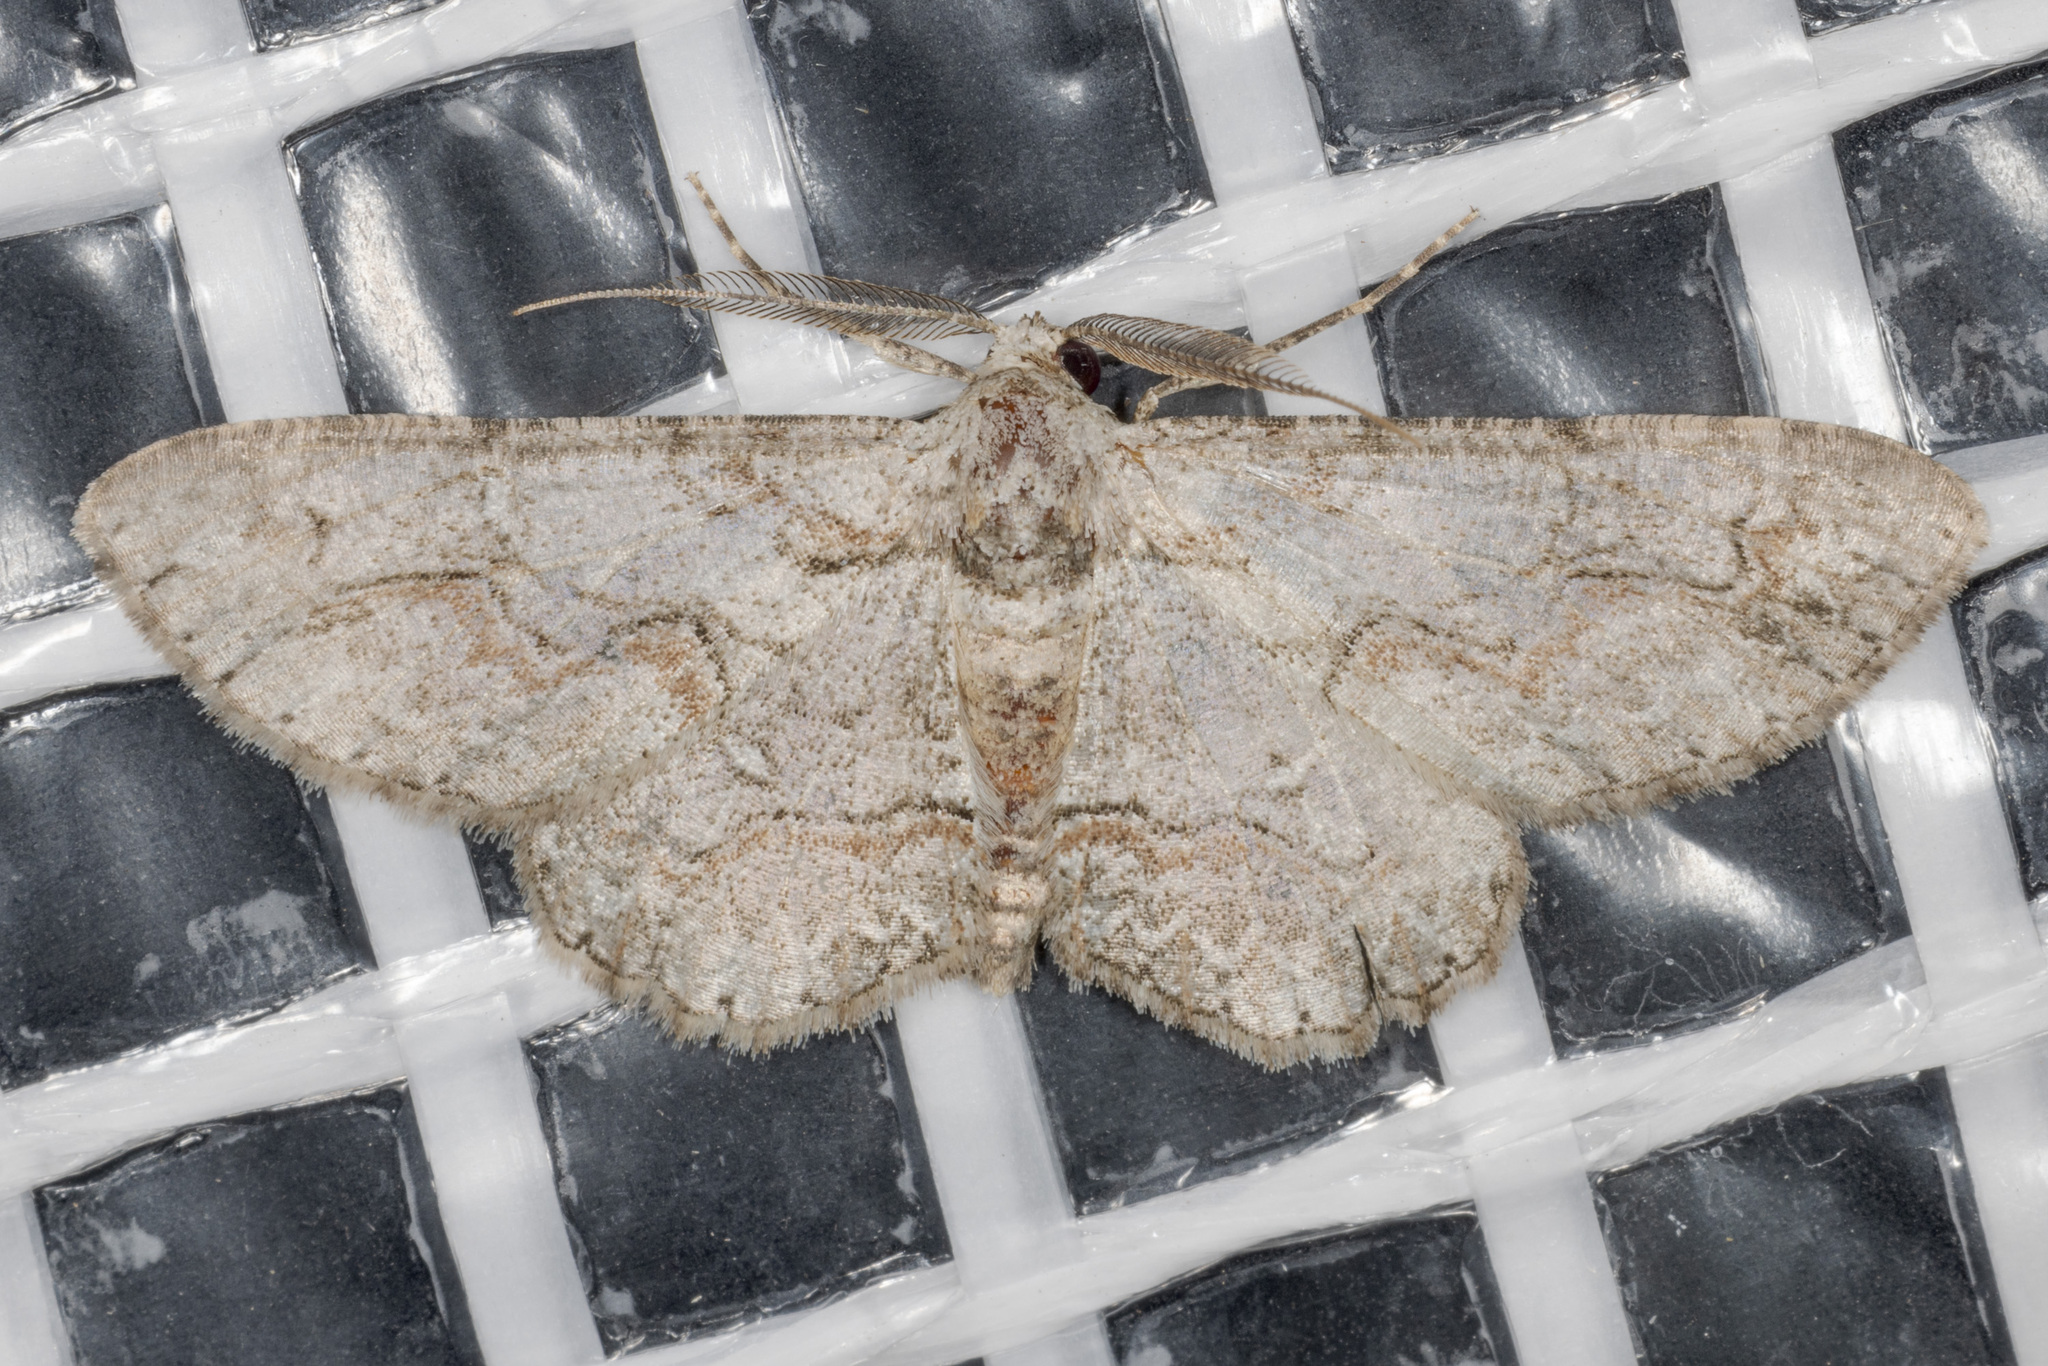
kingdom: Animalia
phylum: Arthropoda
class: Insecta
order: Lepidoptera
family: Geometridae
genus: Iridopsis
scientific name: Iridopsis defectaria
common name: Brown-shaded gray
